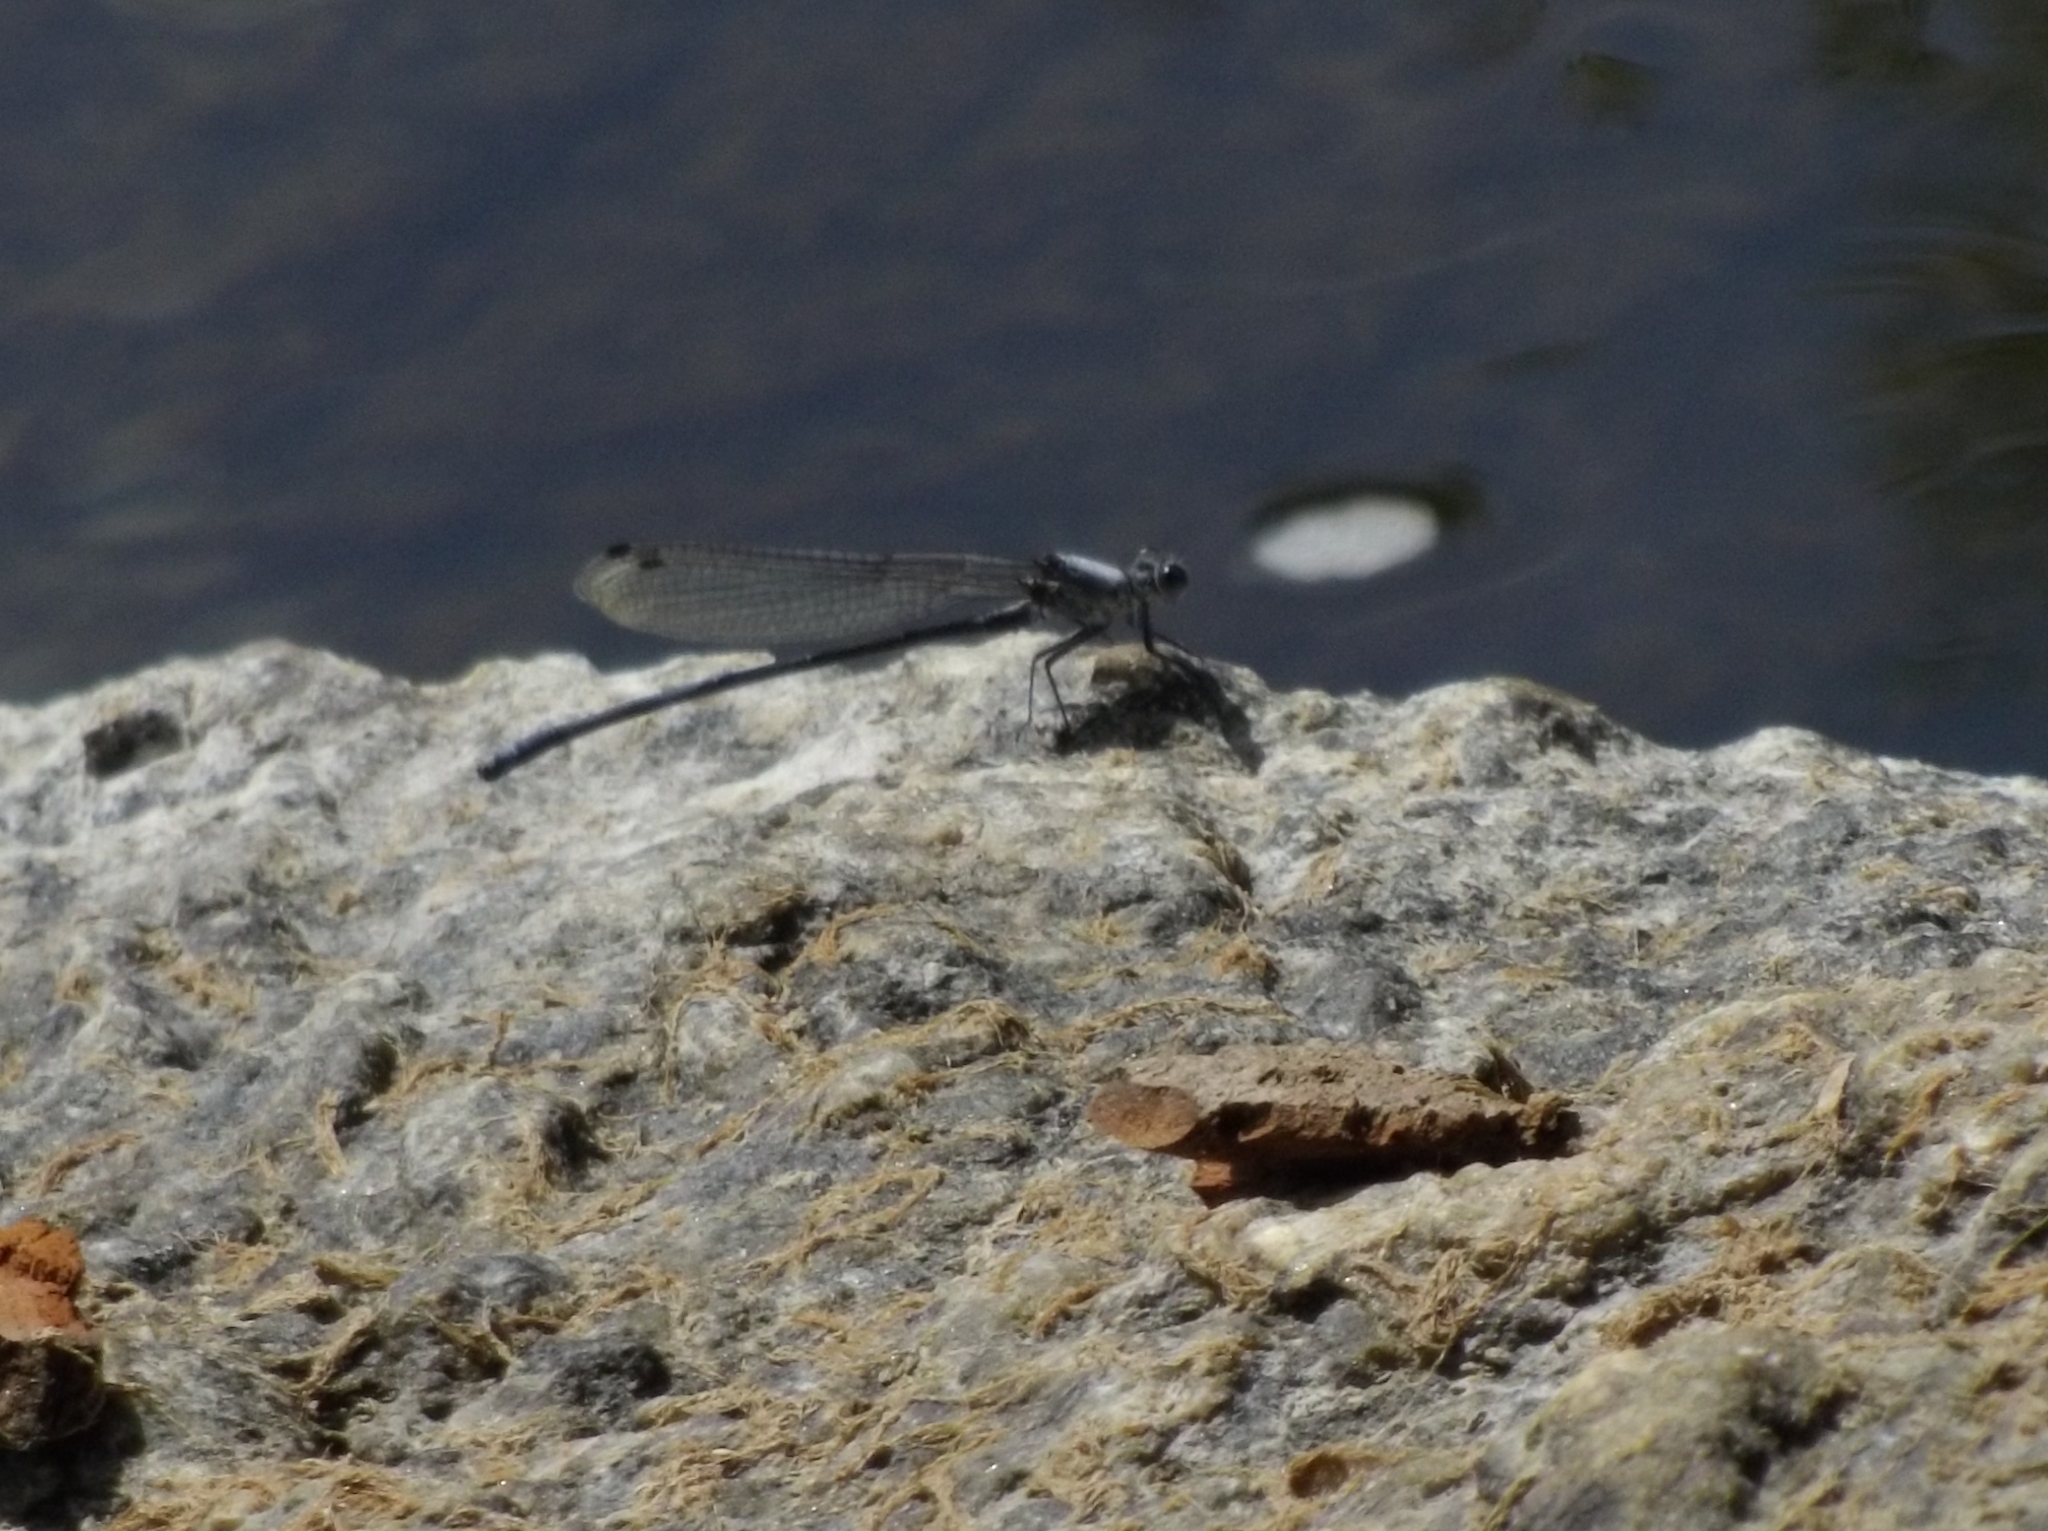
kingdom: Animalia
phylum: Arthropoda
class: Insecta
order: Odonata
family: Coenagrionidae
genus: Argia
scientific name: Argia moesta
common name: Powdered dancer
